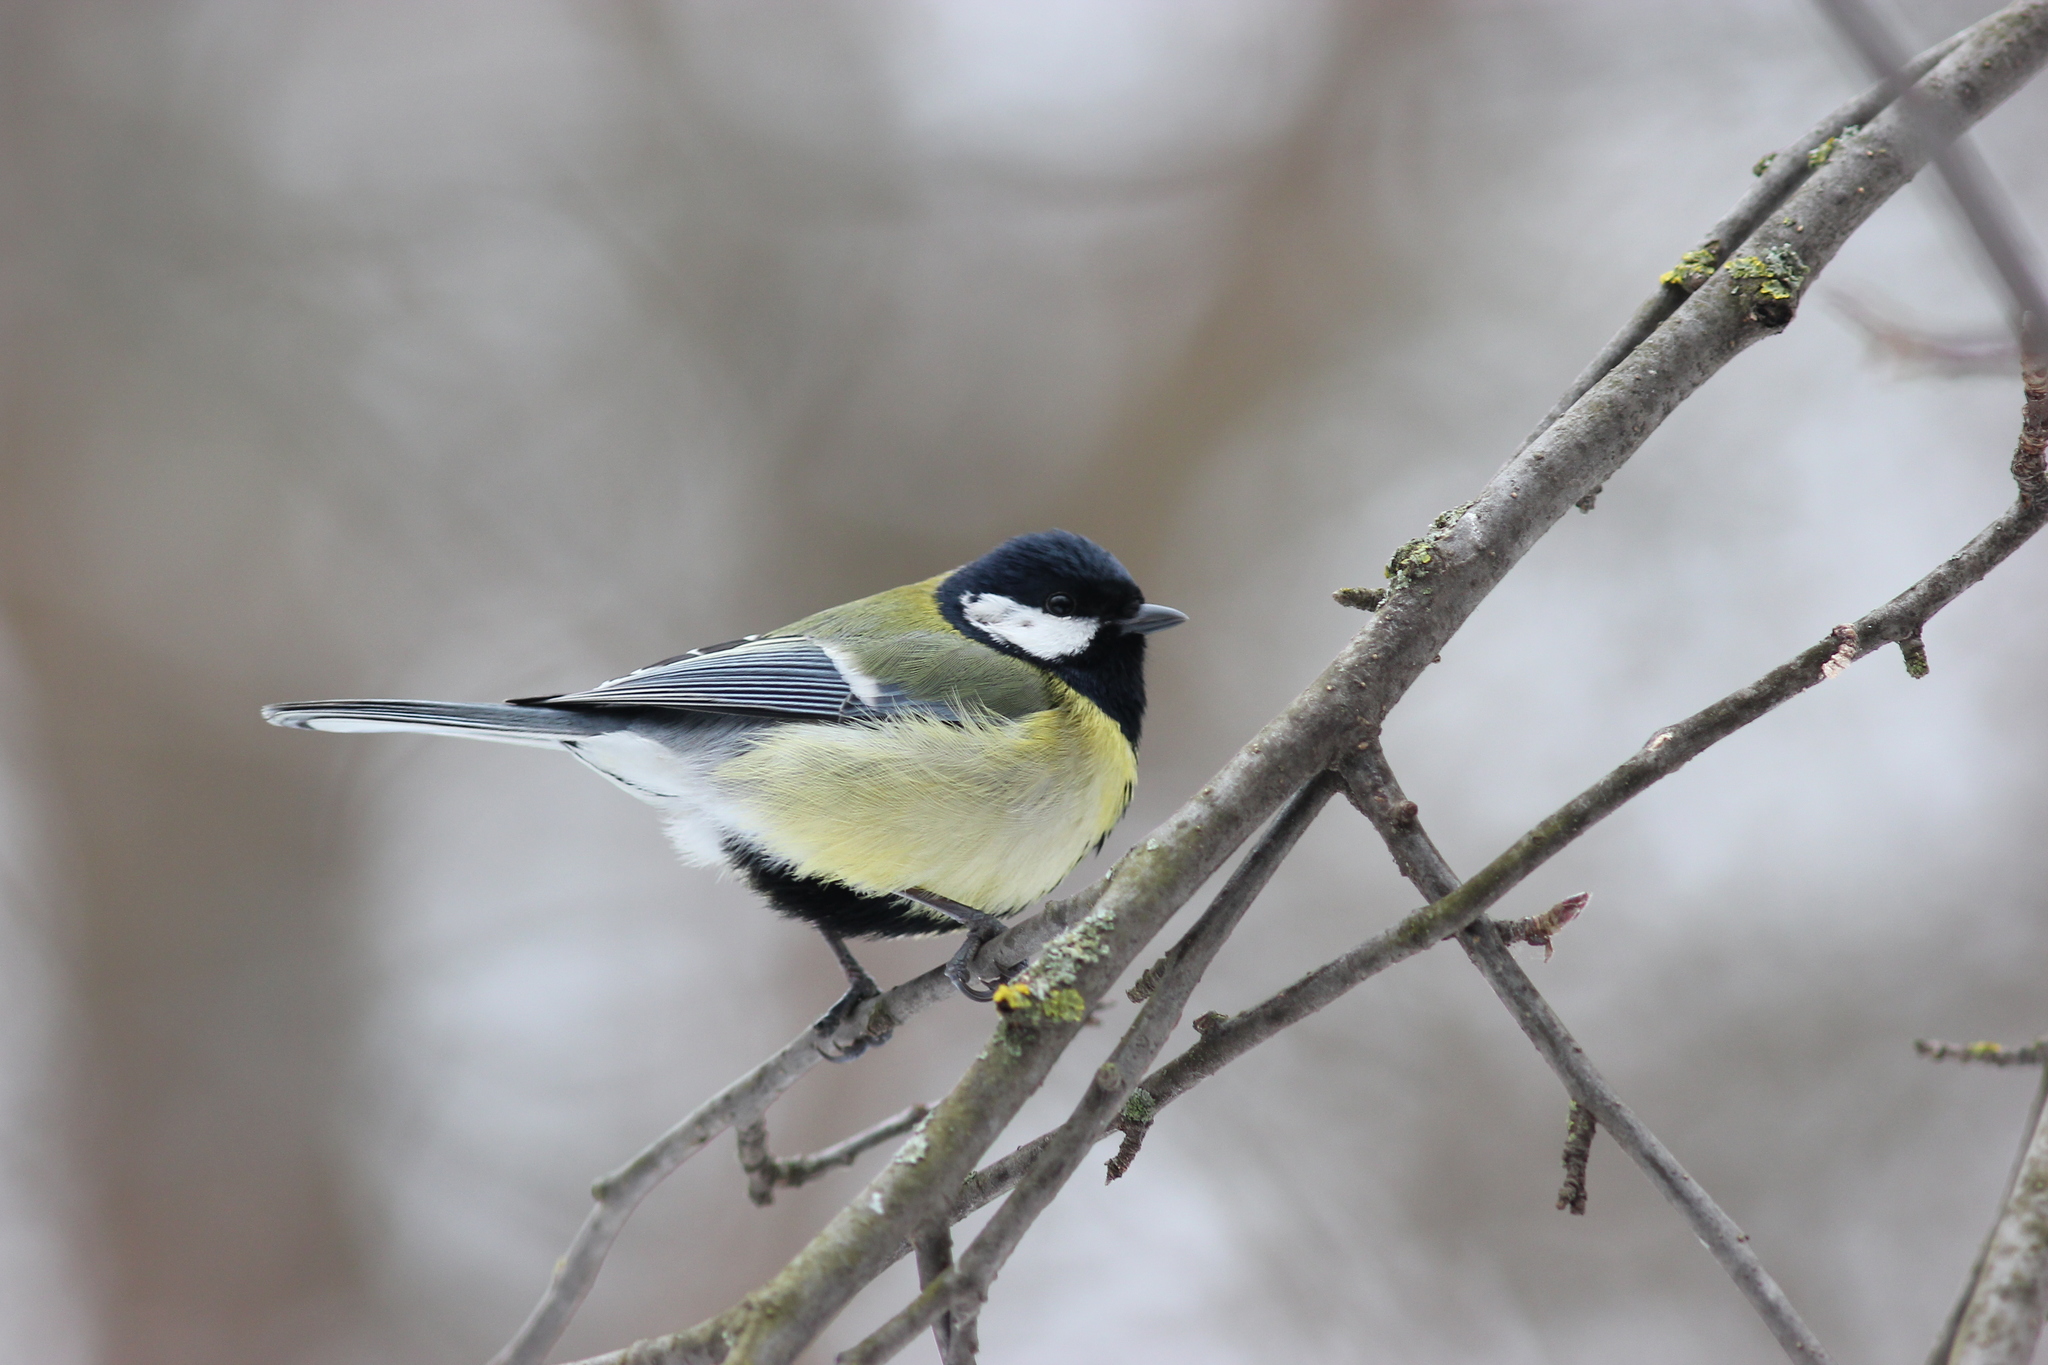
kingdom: Animalia
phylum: Chordata
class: Aves
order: Passeriformes
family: Paridae
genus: Parus
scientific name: Parus major
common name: Great tit
